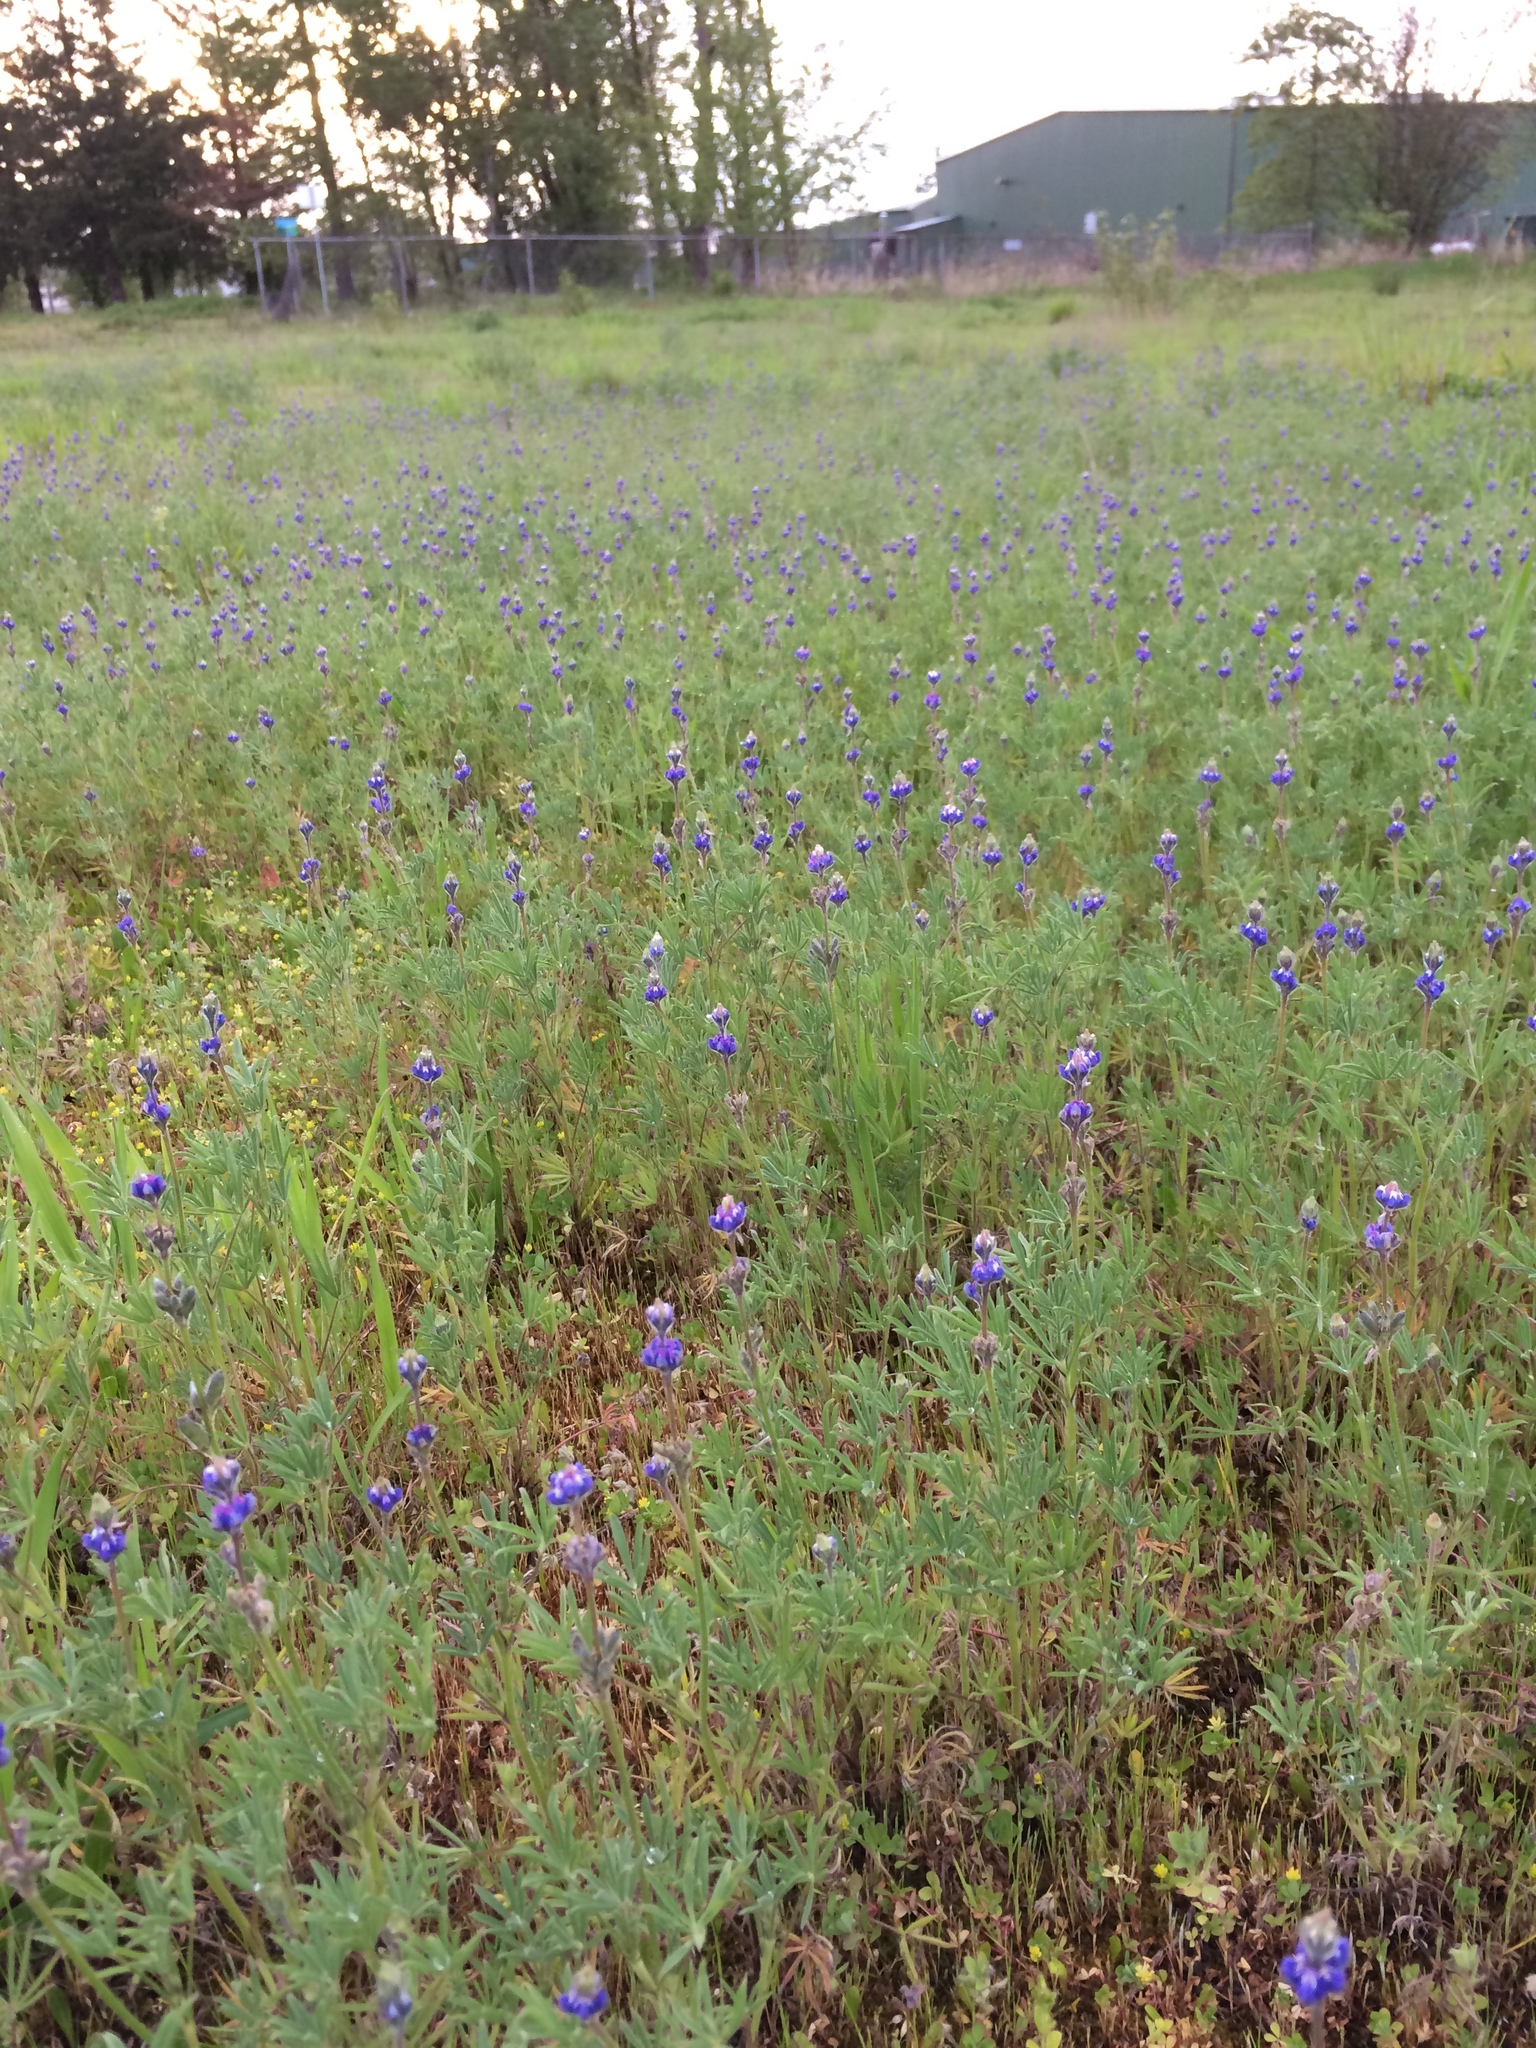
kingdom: Plantae
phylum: Tracheophyta
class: Magnoliopsida
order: Fabales
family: Fabaceae
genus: Lupinus
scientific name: Lupinus bicolor
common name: Miniature lupine
